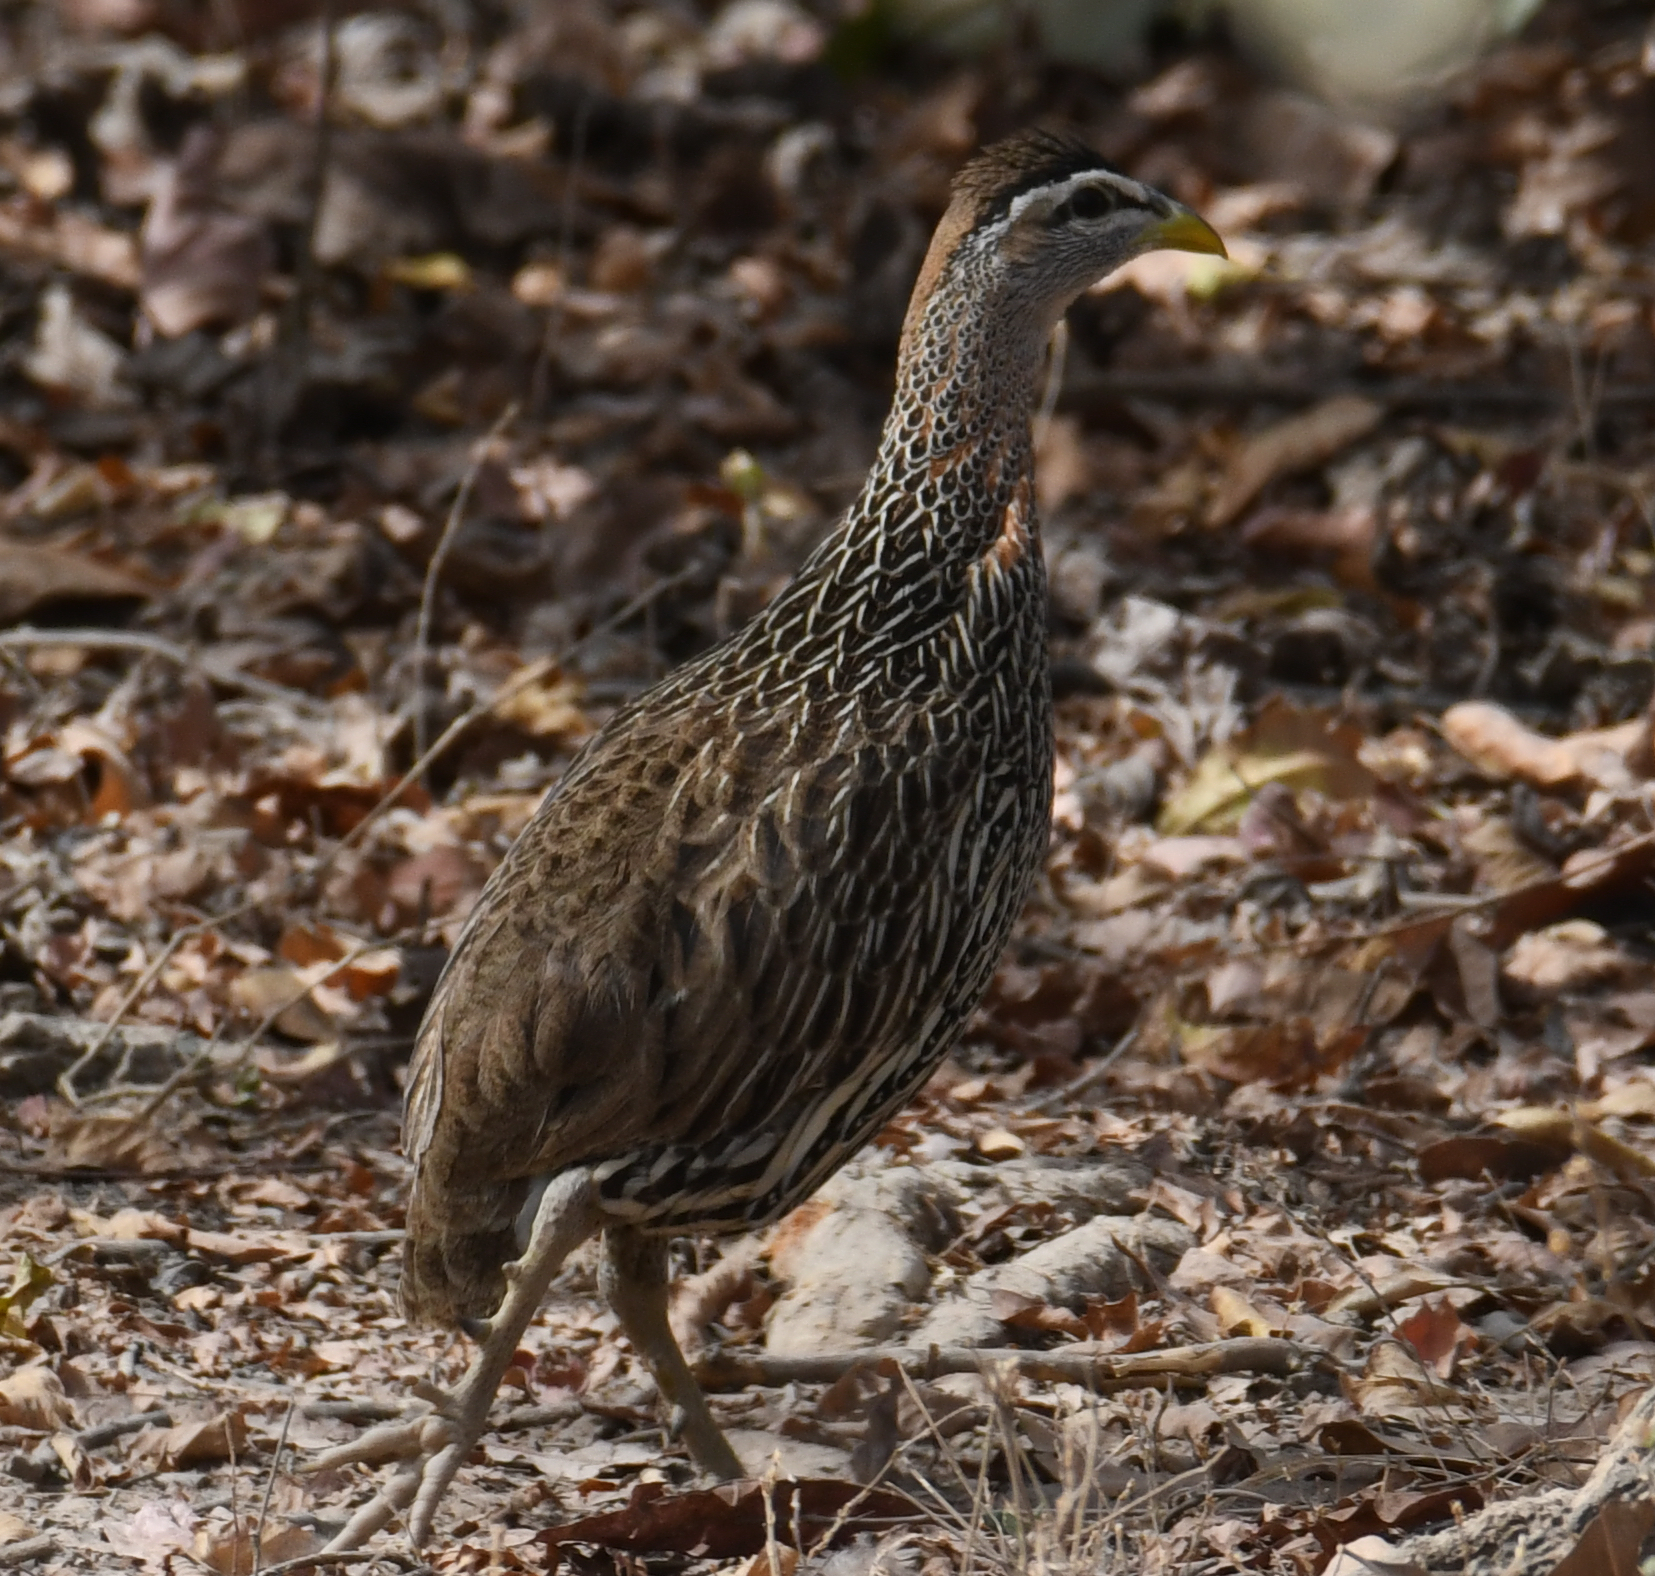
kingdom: Animalia
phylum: Chordata
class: Aves
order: Galliformes
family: Phasianidae
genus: Pternistis
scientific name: Pternistis bicalcaratus
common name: Double-spurred francolin
